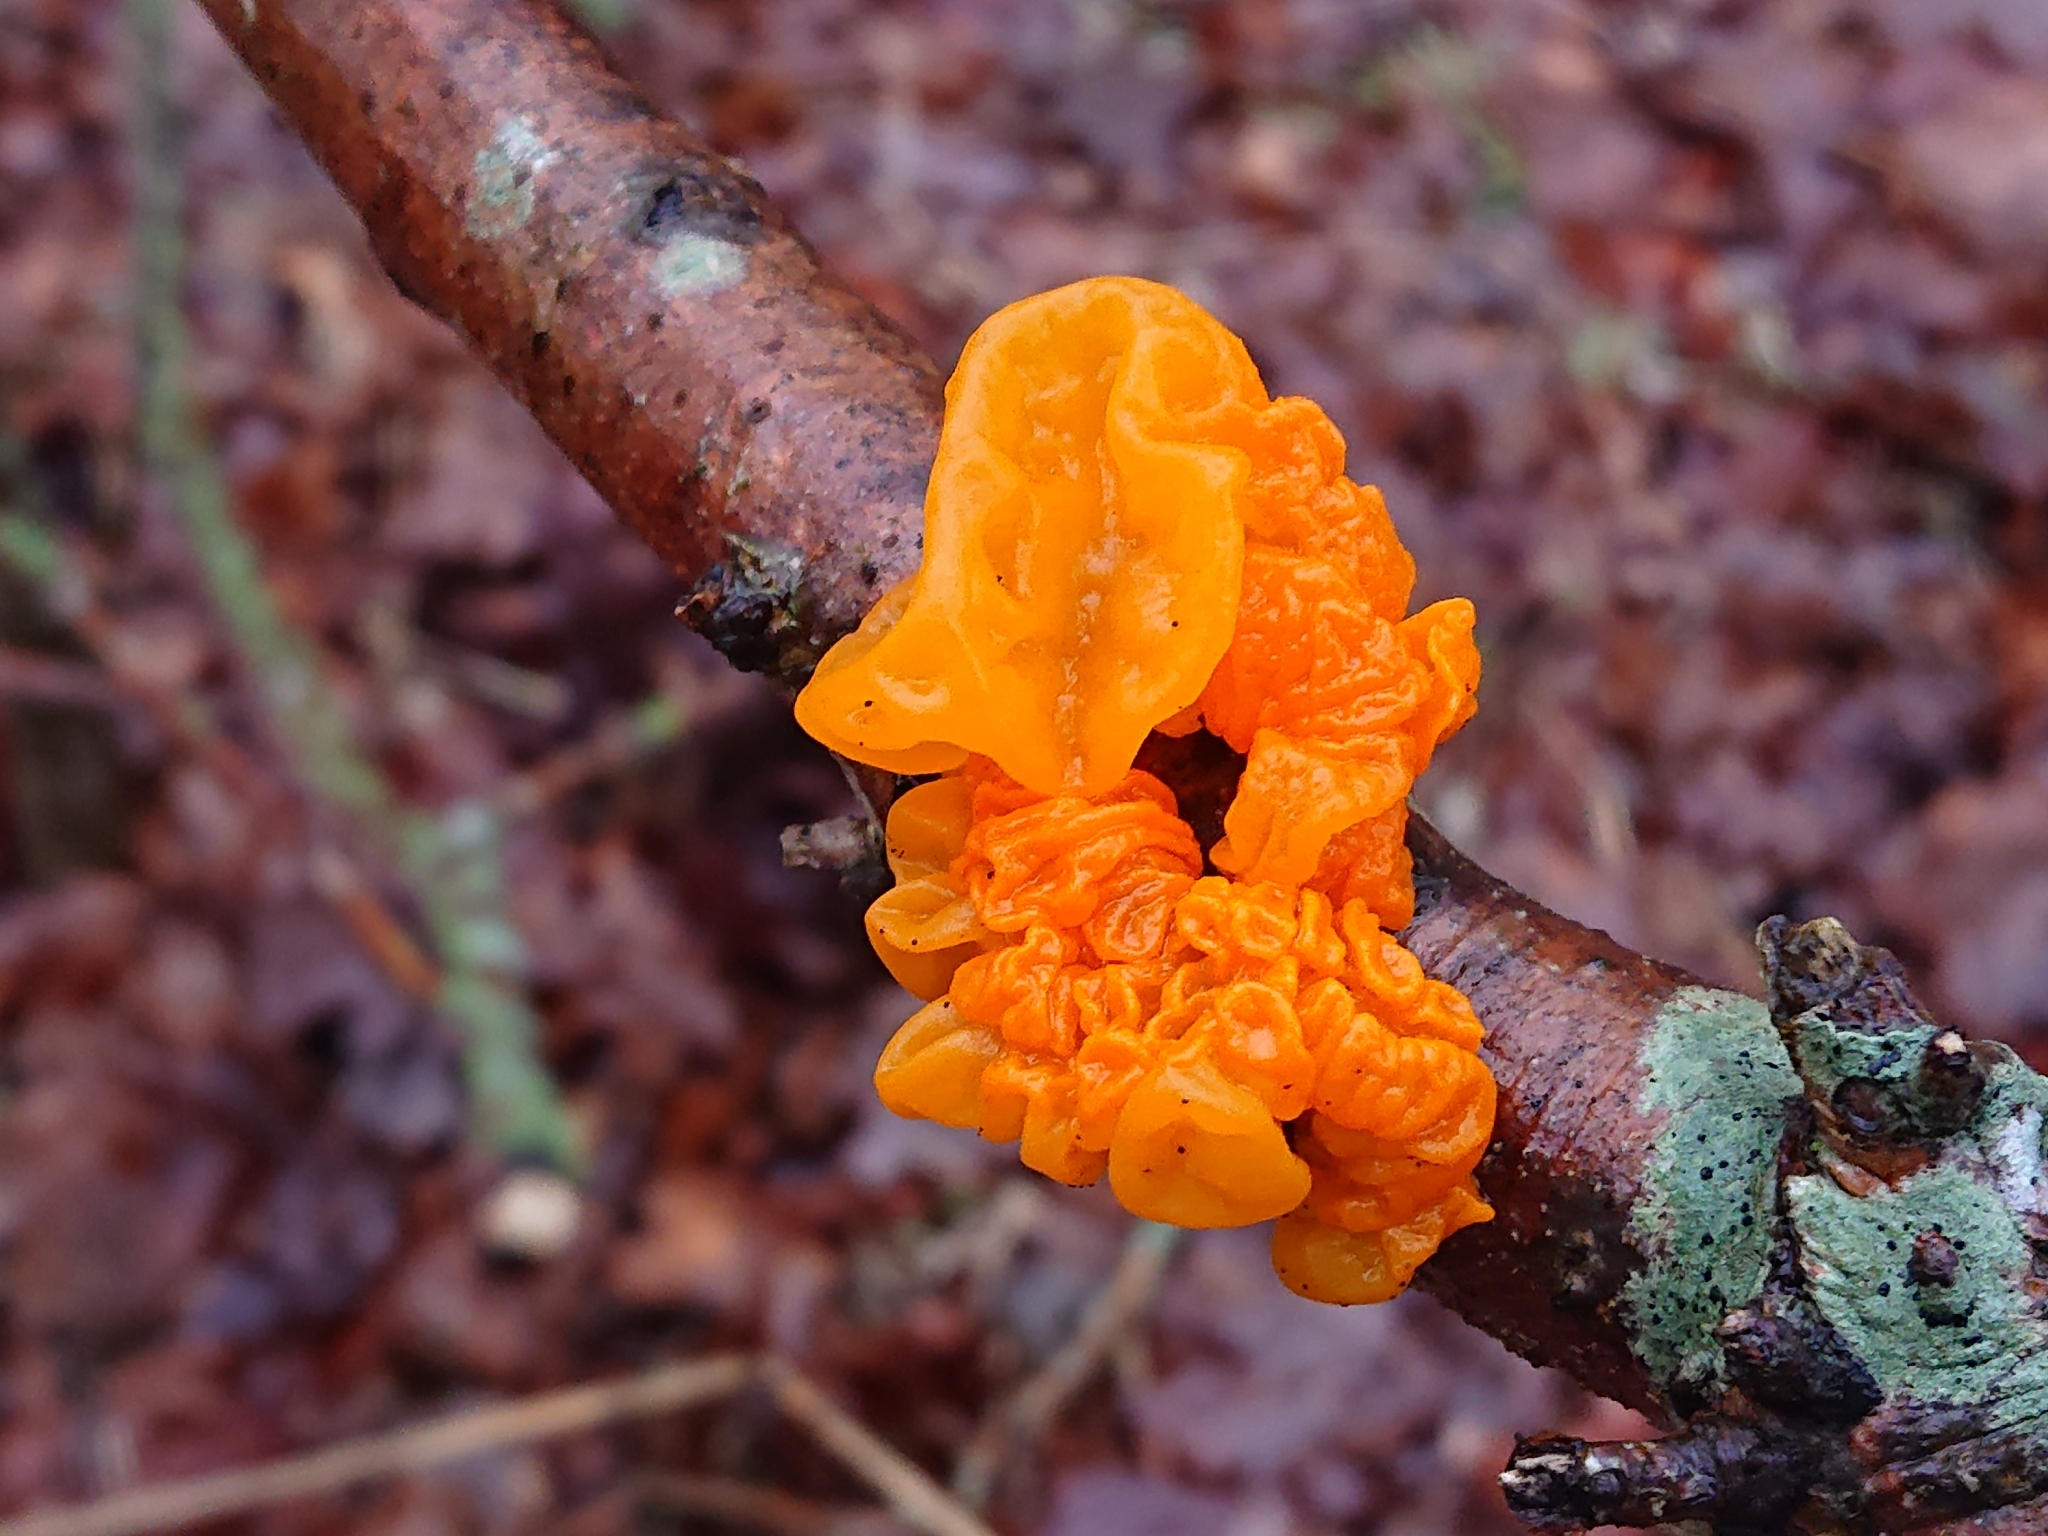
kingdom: Fungi
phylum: Basidiomycota
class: Tremellomycetes
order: Tremellales
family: Tremellaceae
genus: Tremella
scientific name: Tremella mesenterica
